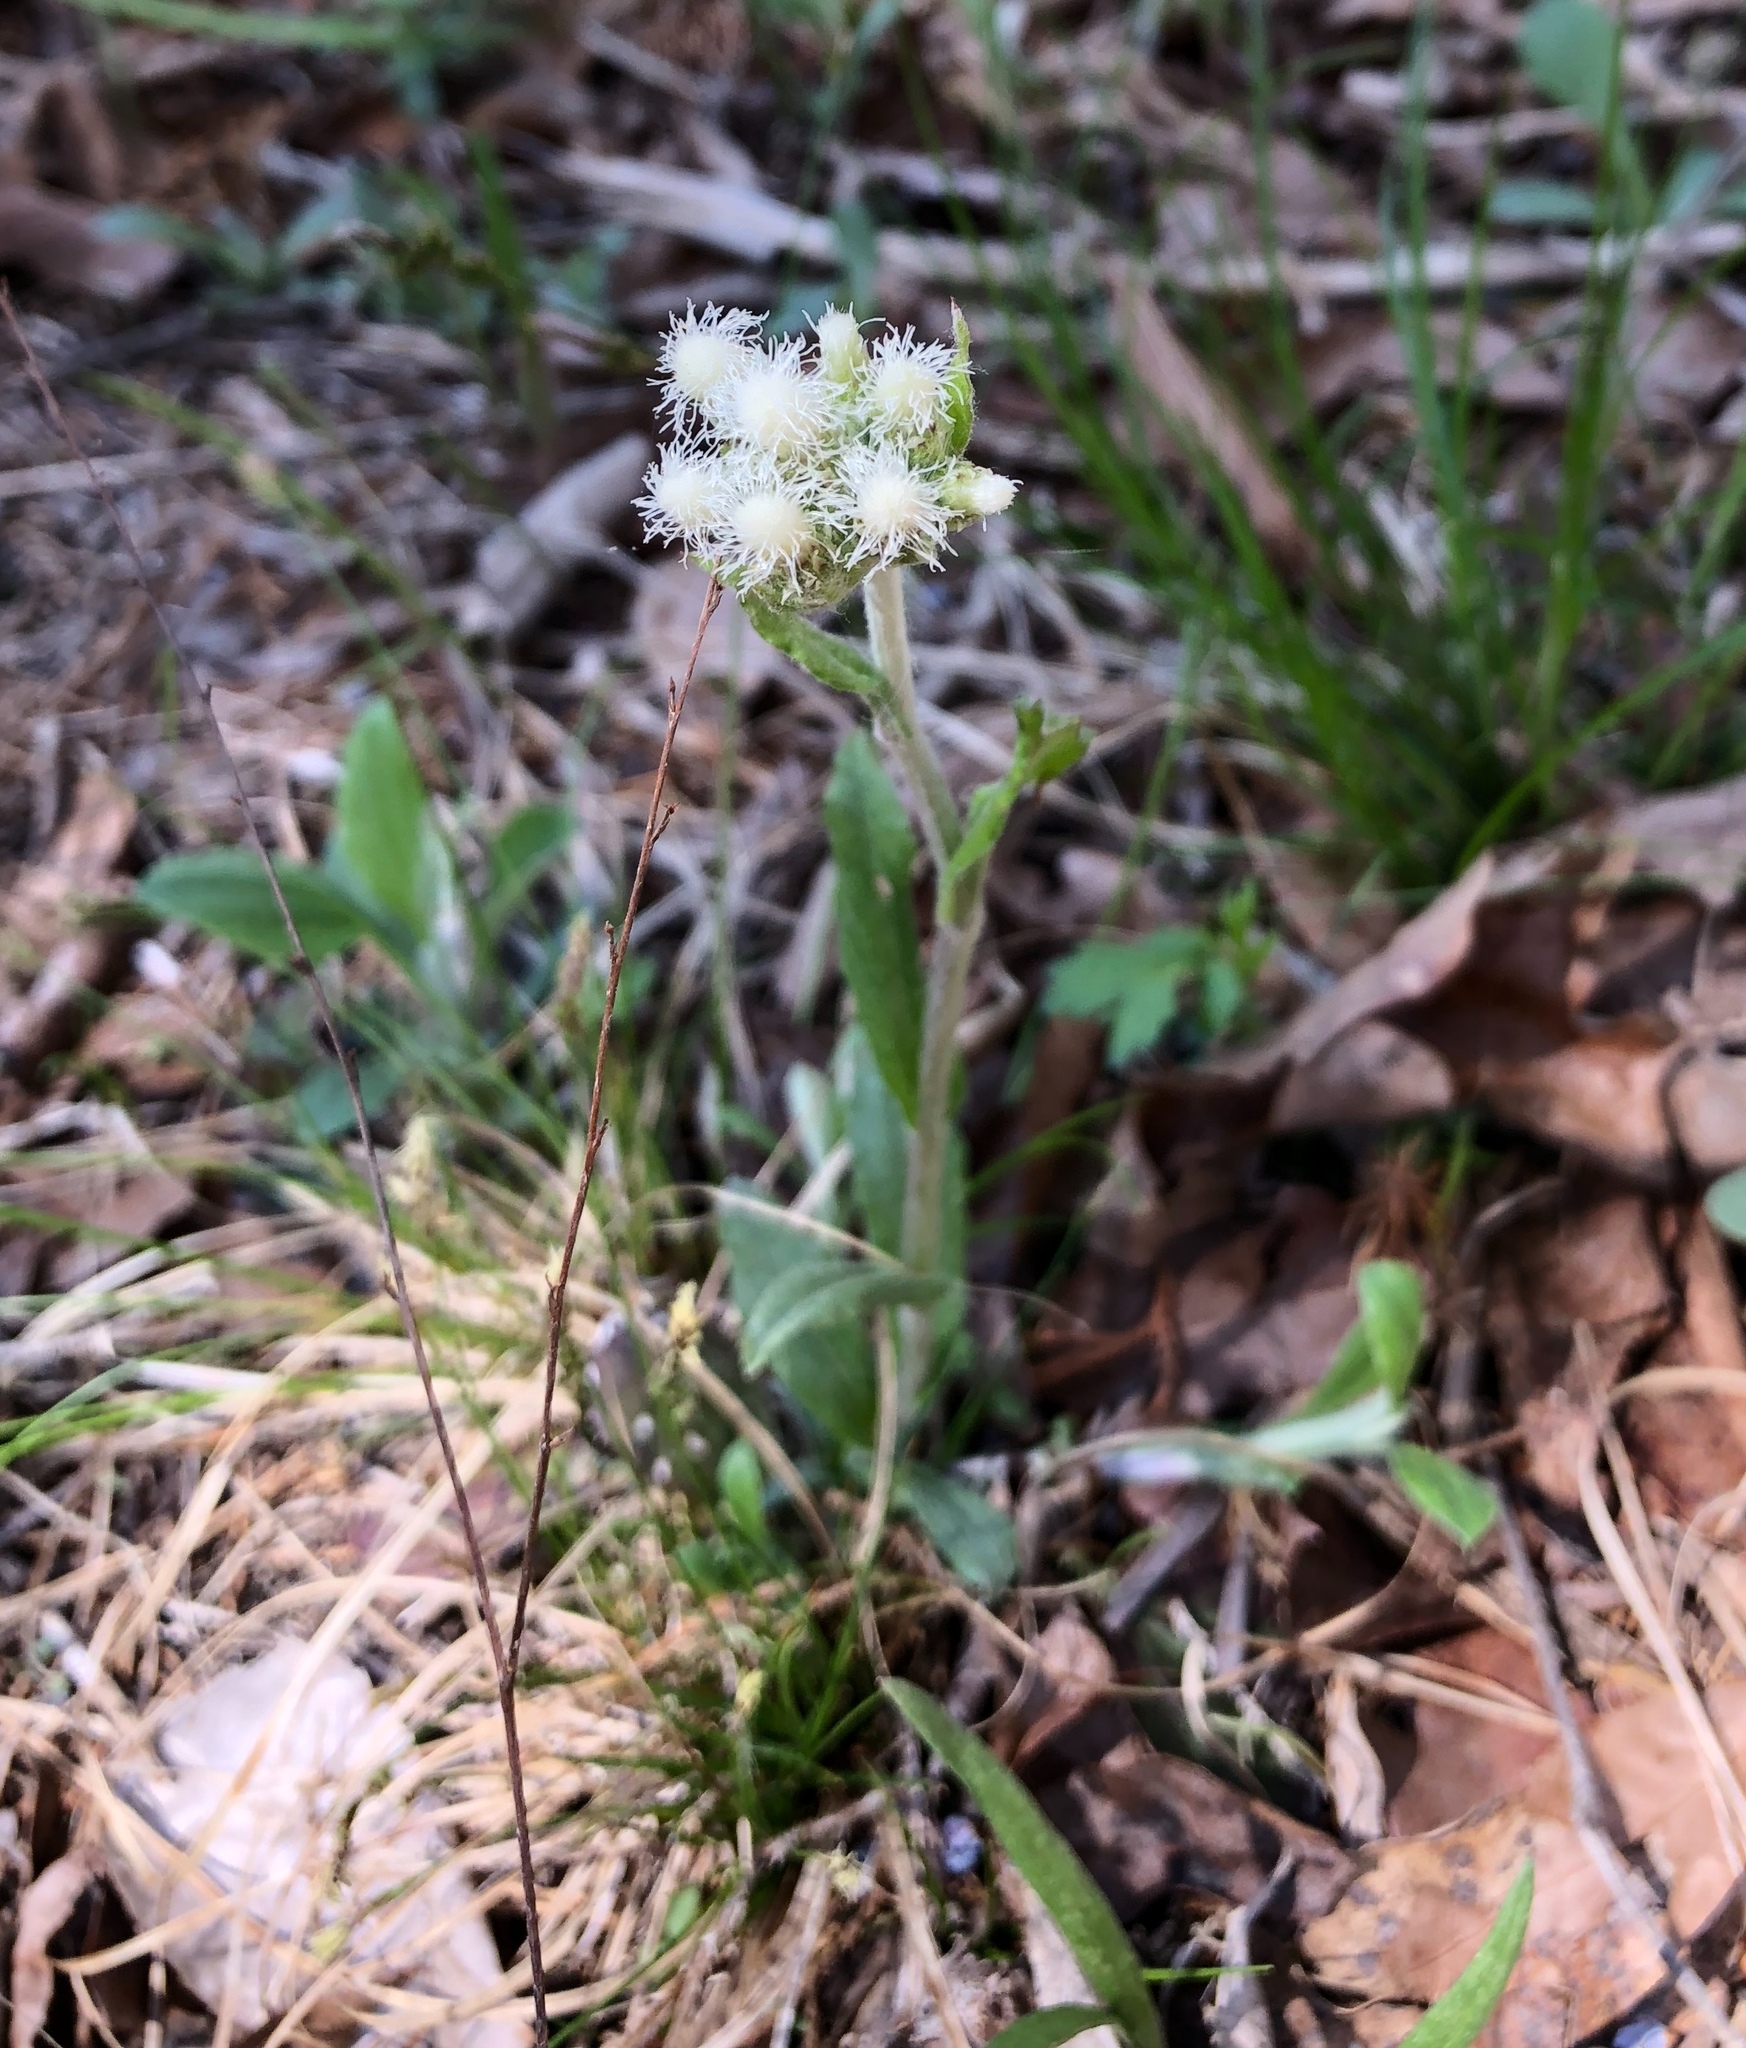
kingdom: Plantae
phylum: Tracheophyta
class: Magnoliopsida
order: Asterales
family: Asteraceae
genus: Antennaria
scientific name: Antennaria neglecta
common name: Field pussytoes
